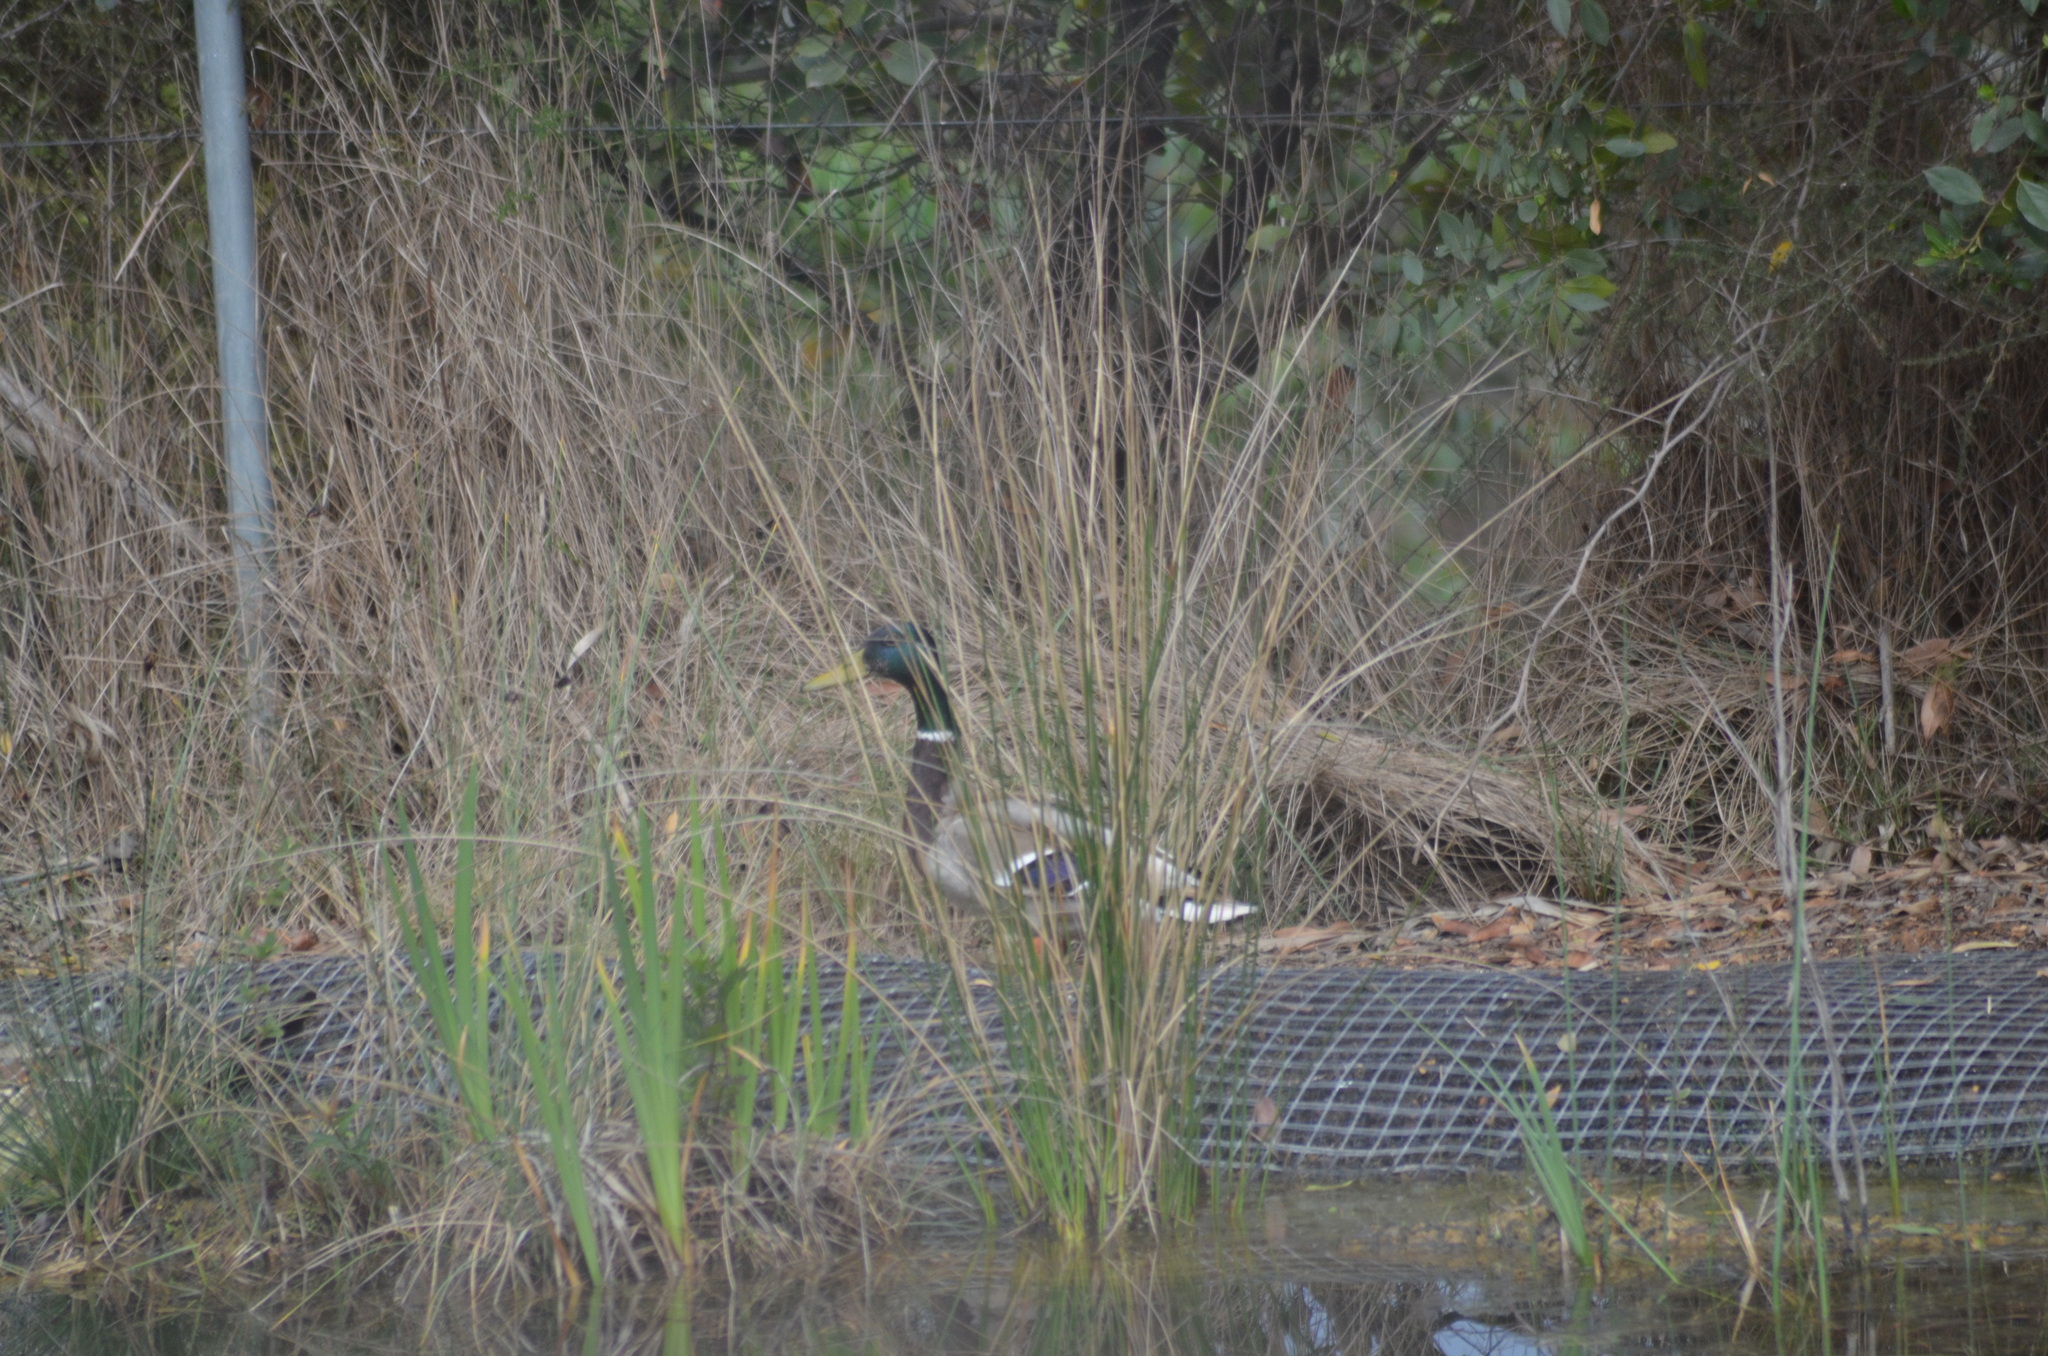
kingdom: Animalia
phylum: Chordata
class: Aves
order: Anseriformes
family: Anatidae
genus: Anas
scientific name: Anas platyrhynchos
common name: Mallard
